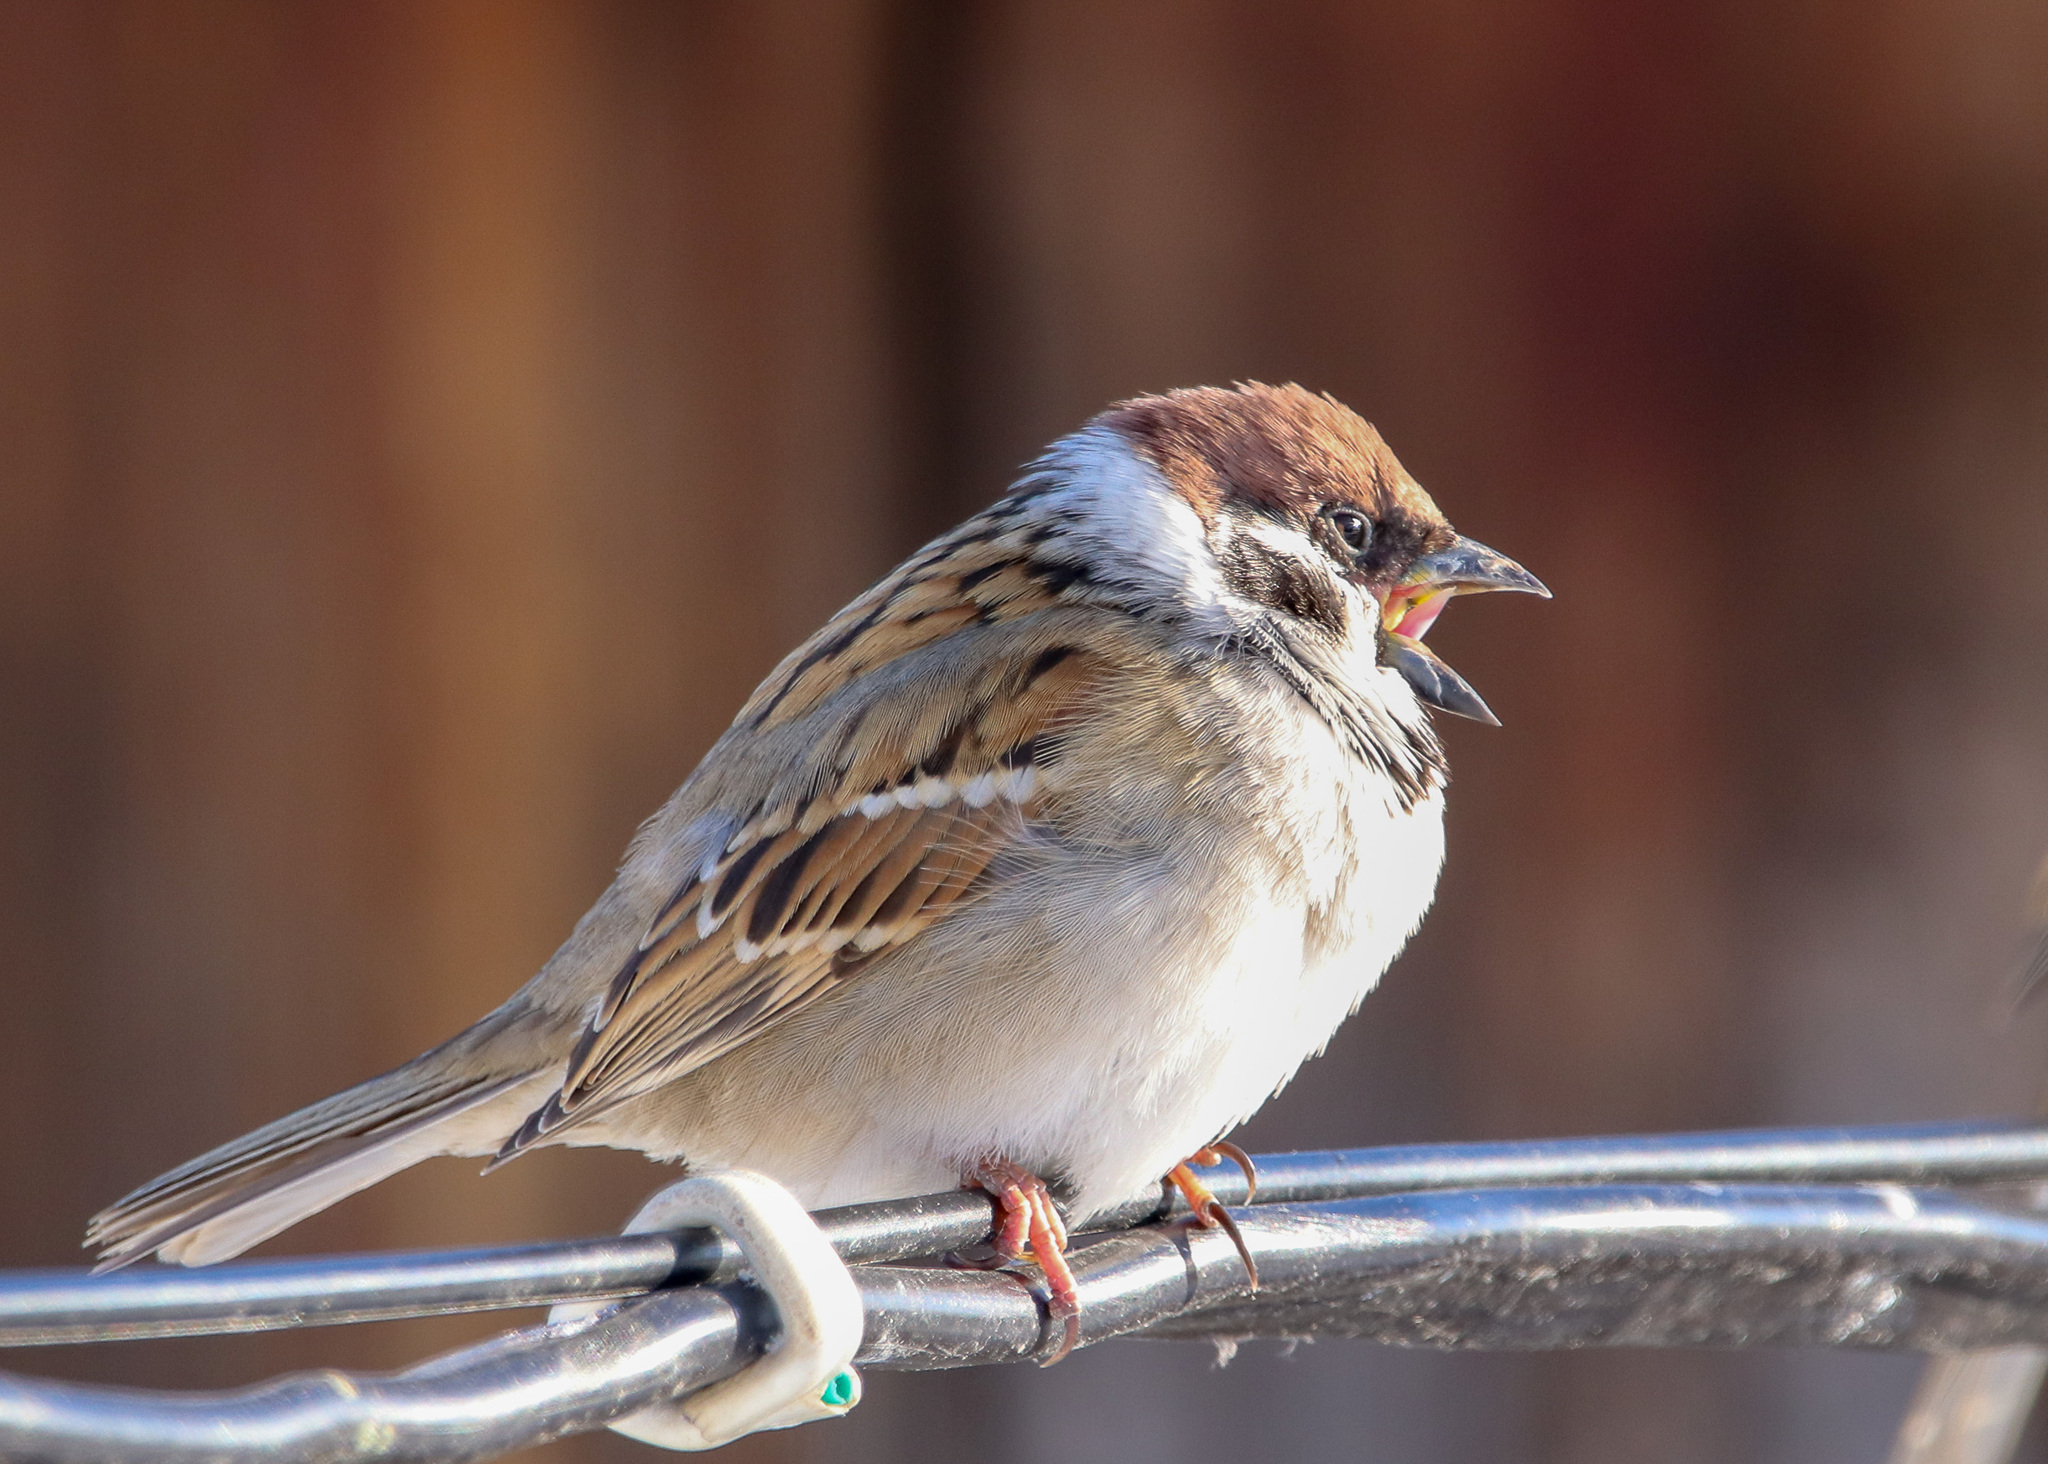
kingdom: Animalia
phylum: Chordata
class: Aves
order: Passeriformes
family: Passeridae
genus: Passer
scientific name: Passer montanus
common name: Eurasian tree sparrow
